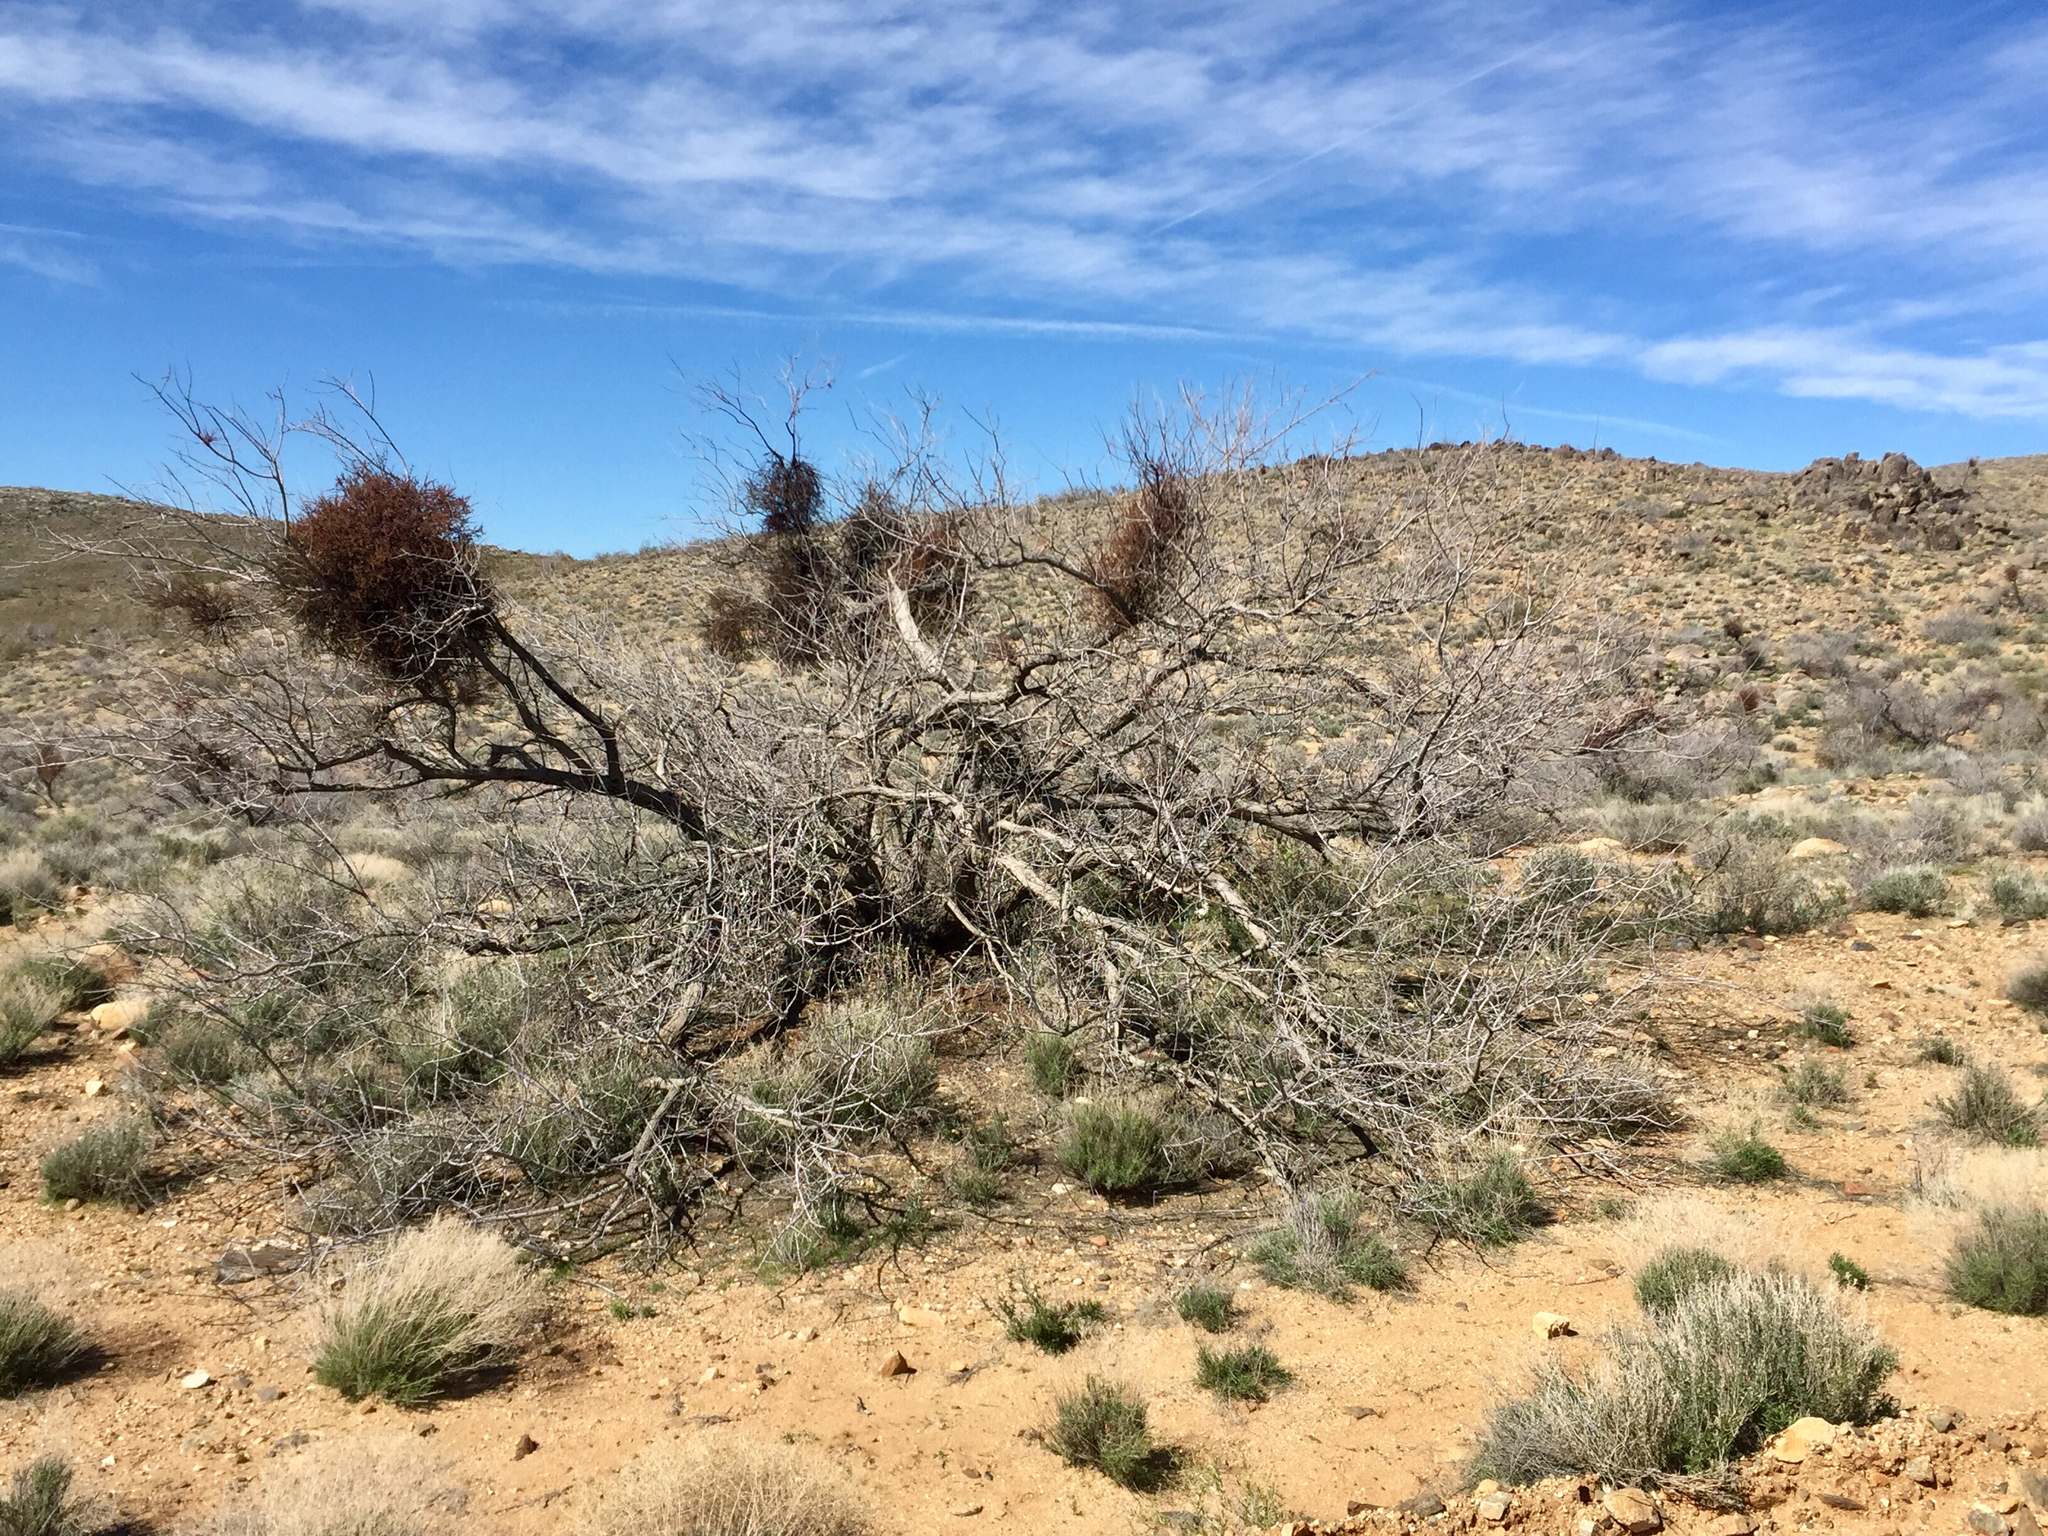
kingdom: Plantae
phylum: Tracheophyta
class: Magnoliopsida
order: Fabales
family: Fabaceae
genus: Senegalia
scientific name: Senegalia greggii
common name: Texas-mimosa
